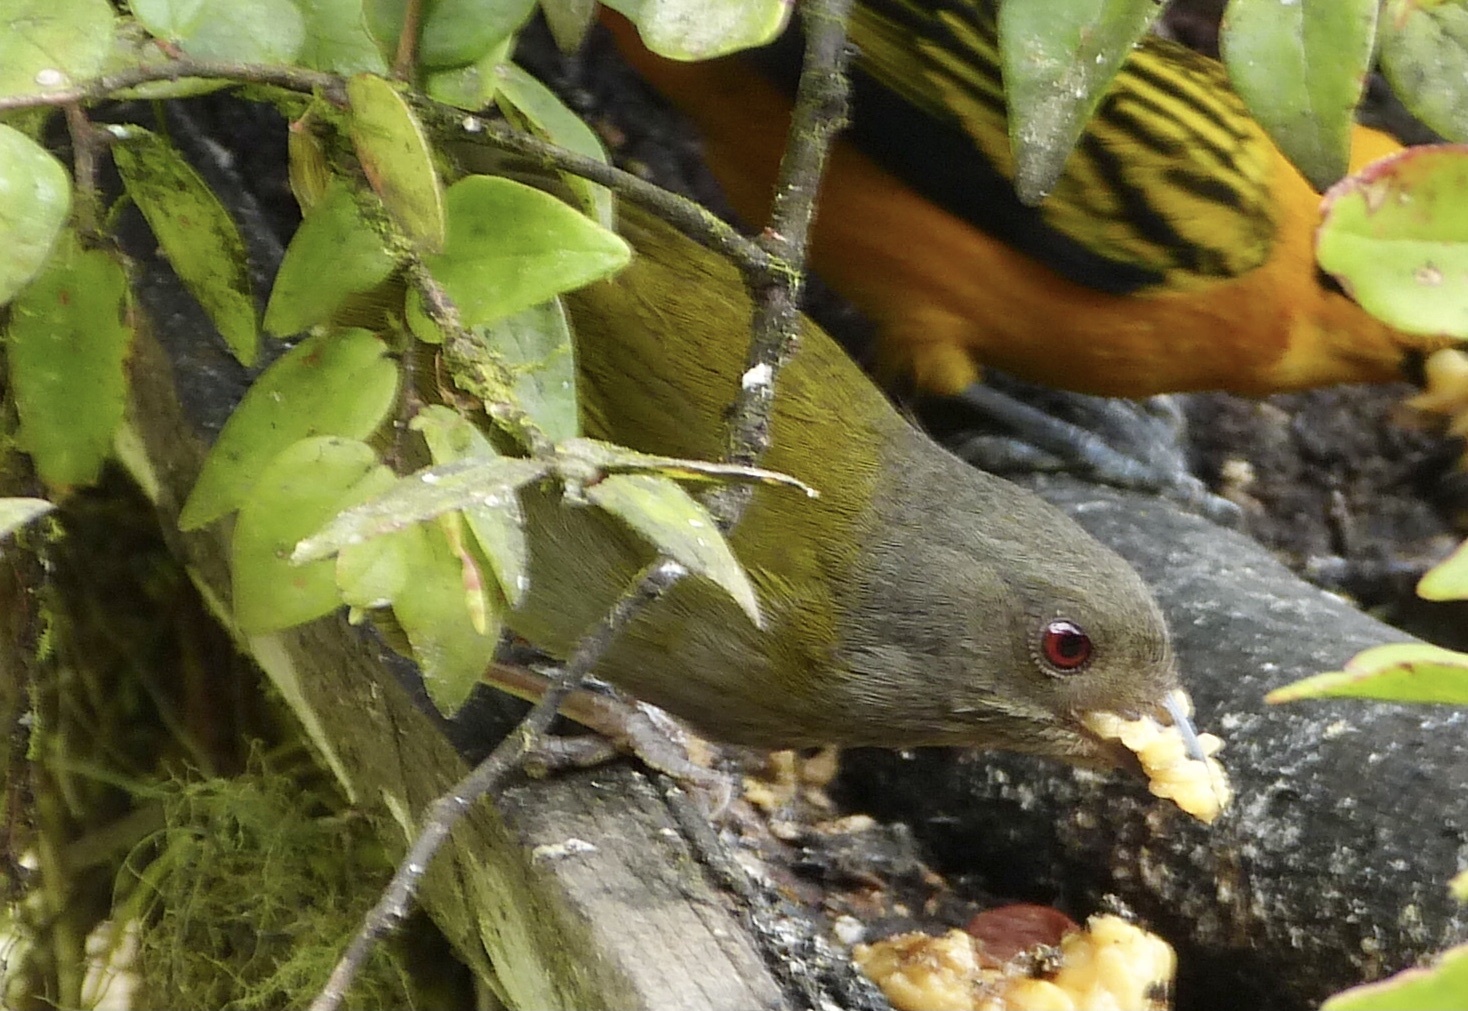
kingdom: Animalia
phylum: Chordata
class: Aves
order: Passeriformes
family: Passerellidae
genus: Chlorospingus
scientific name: Chlorospingus semifuscus
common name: Dusky bush-tanager
